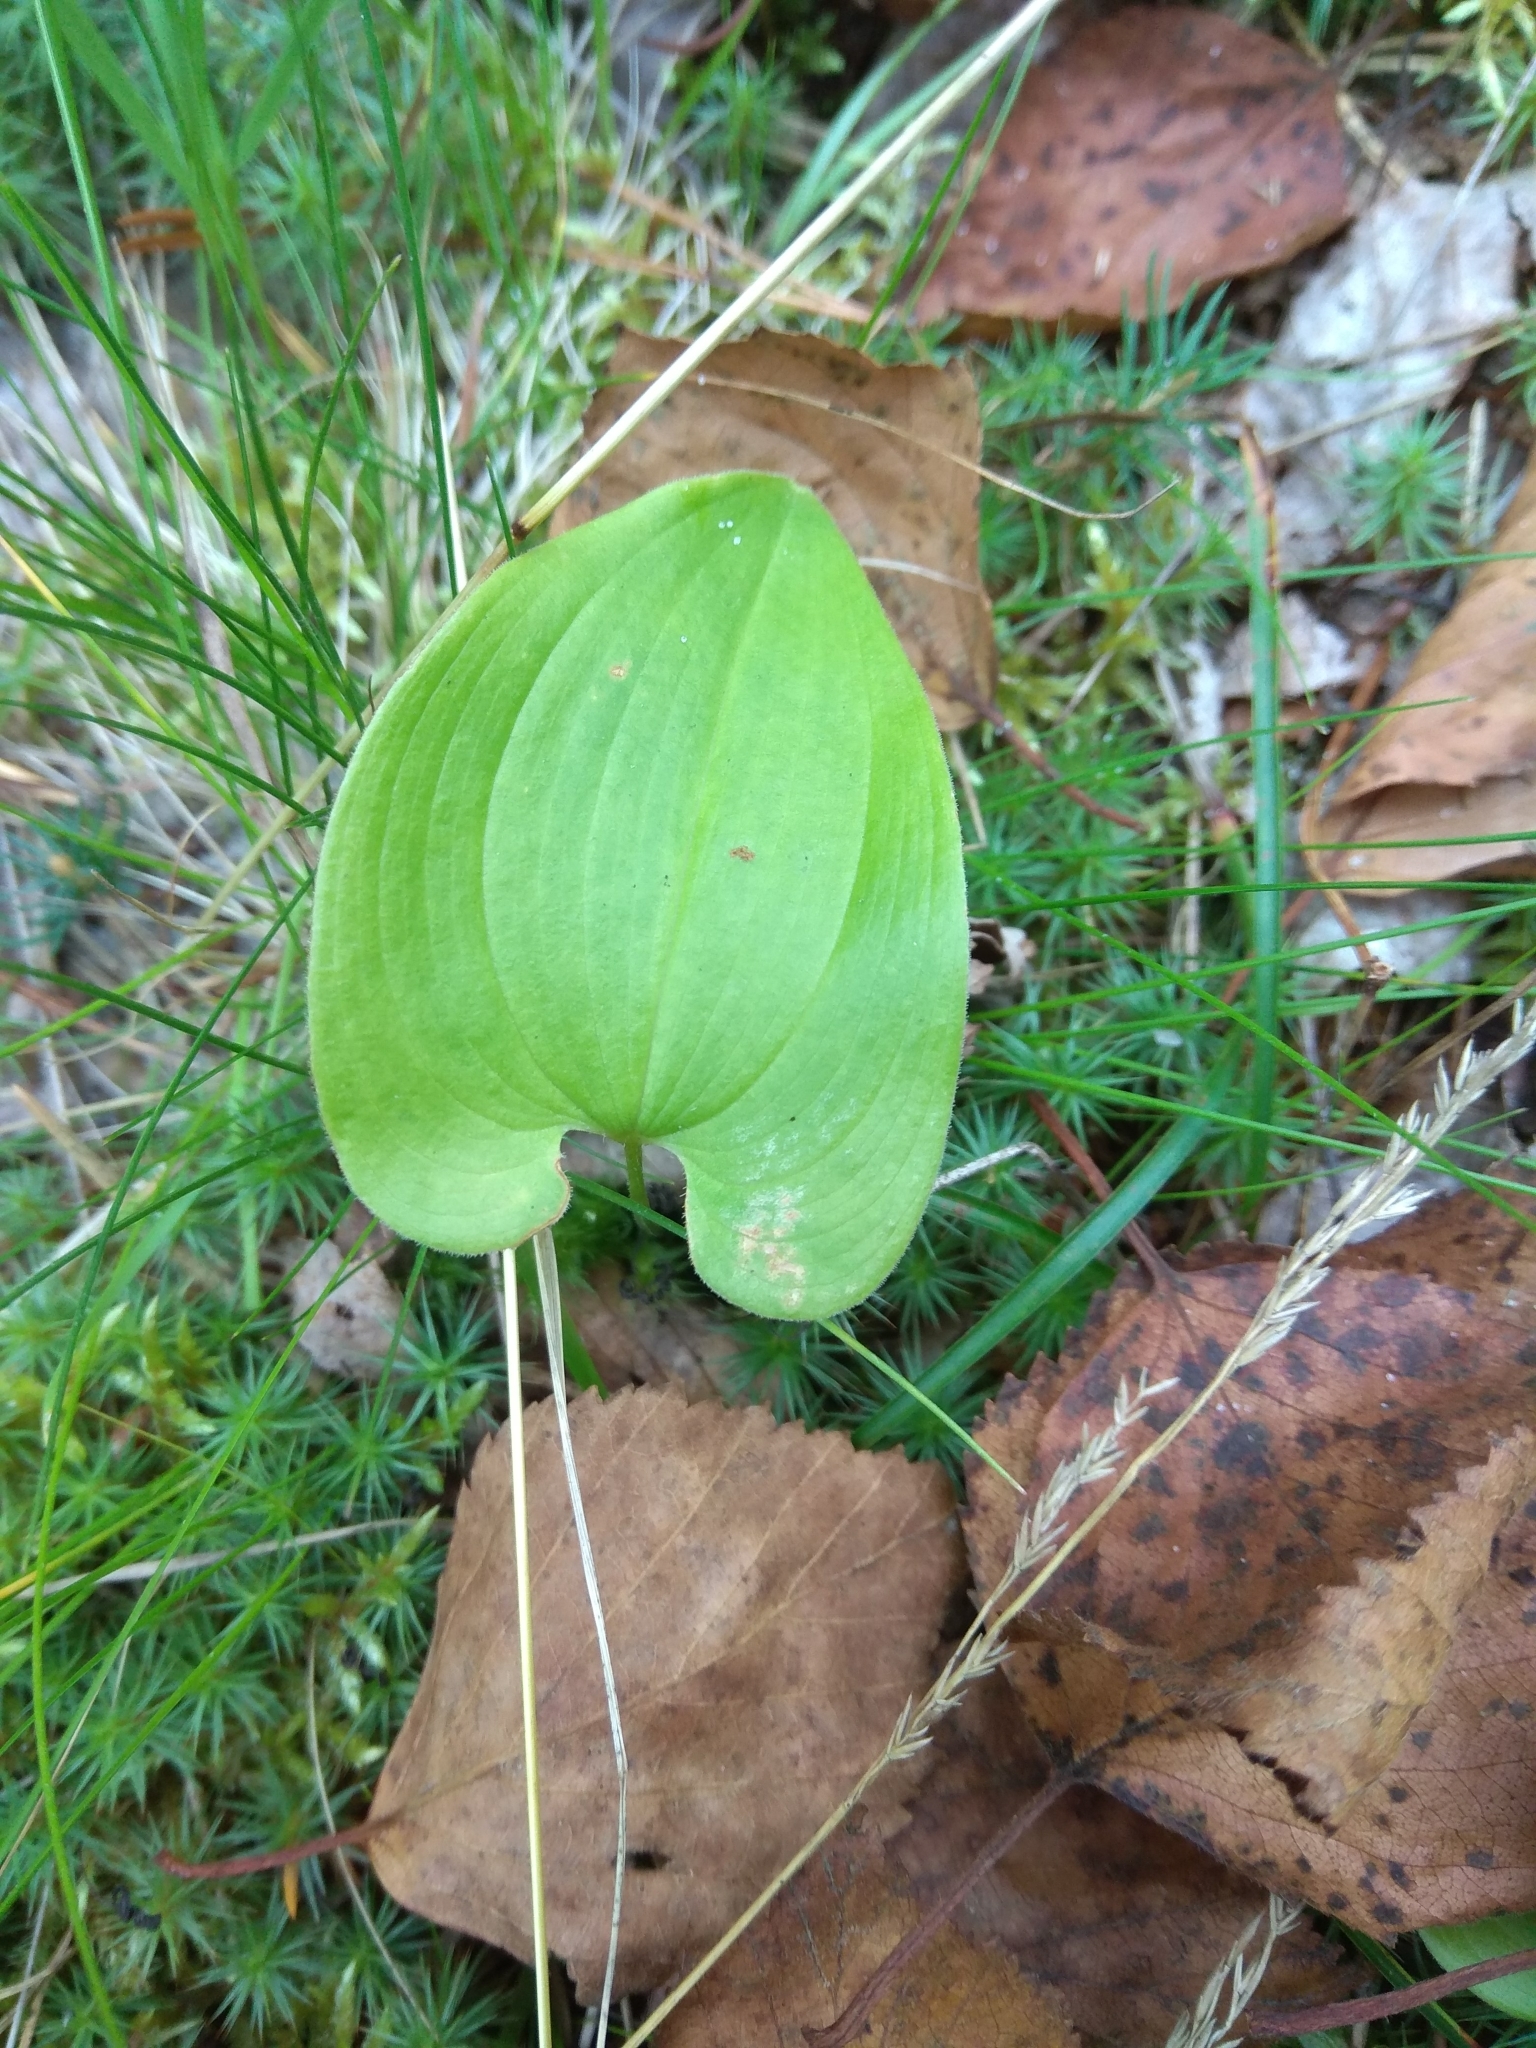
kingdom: Plantae
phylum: Tracheophyta
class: Liliopsida
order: Asparagales
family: Asparagaceae
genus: Maianthemum
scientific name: Maianthemum bifolium
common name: May lily
